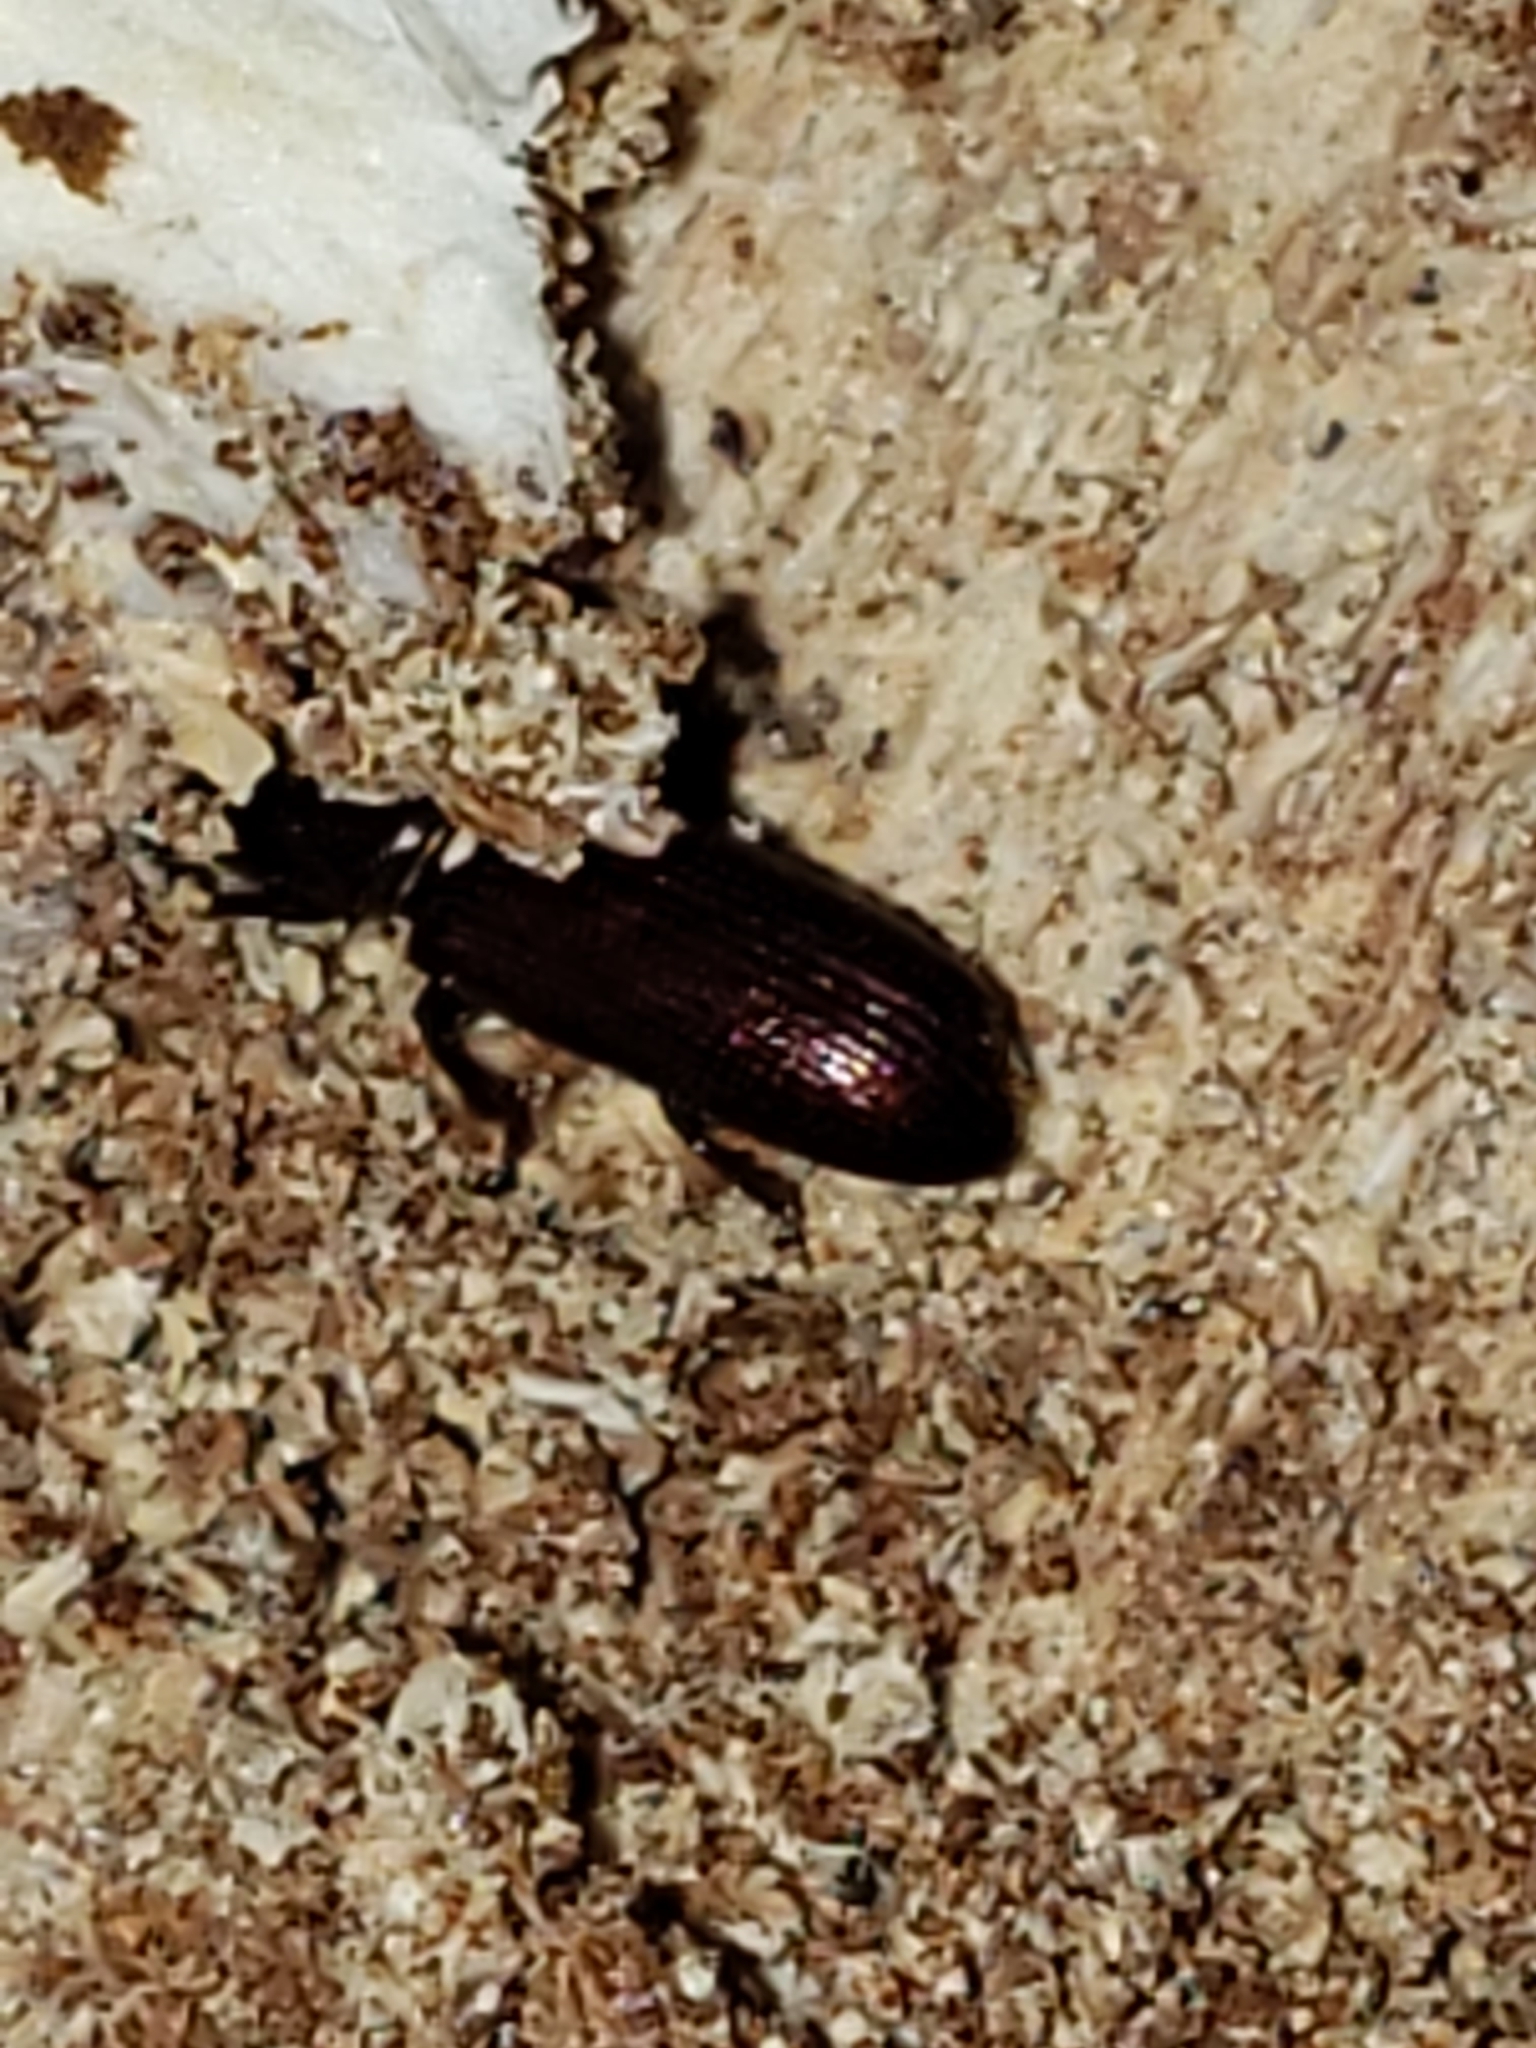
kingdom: Animalia
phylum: Arthropoda
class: Insecta
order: Coleoptera
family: Trogossitidae
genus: Airora
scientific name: Airora cylindrica
